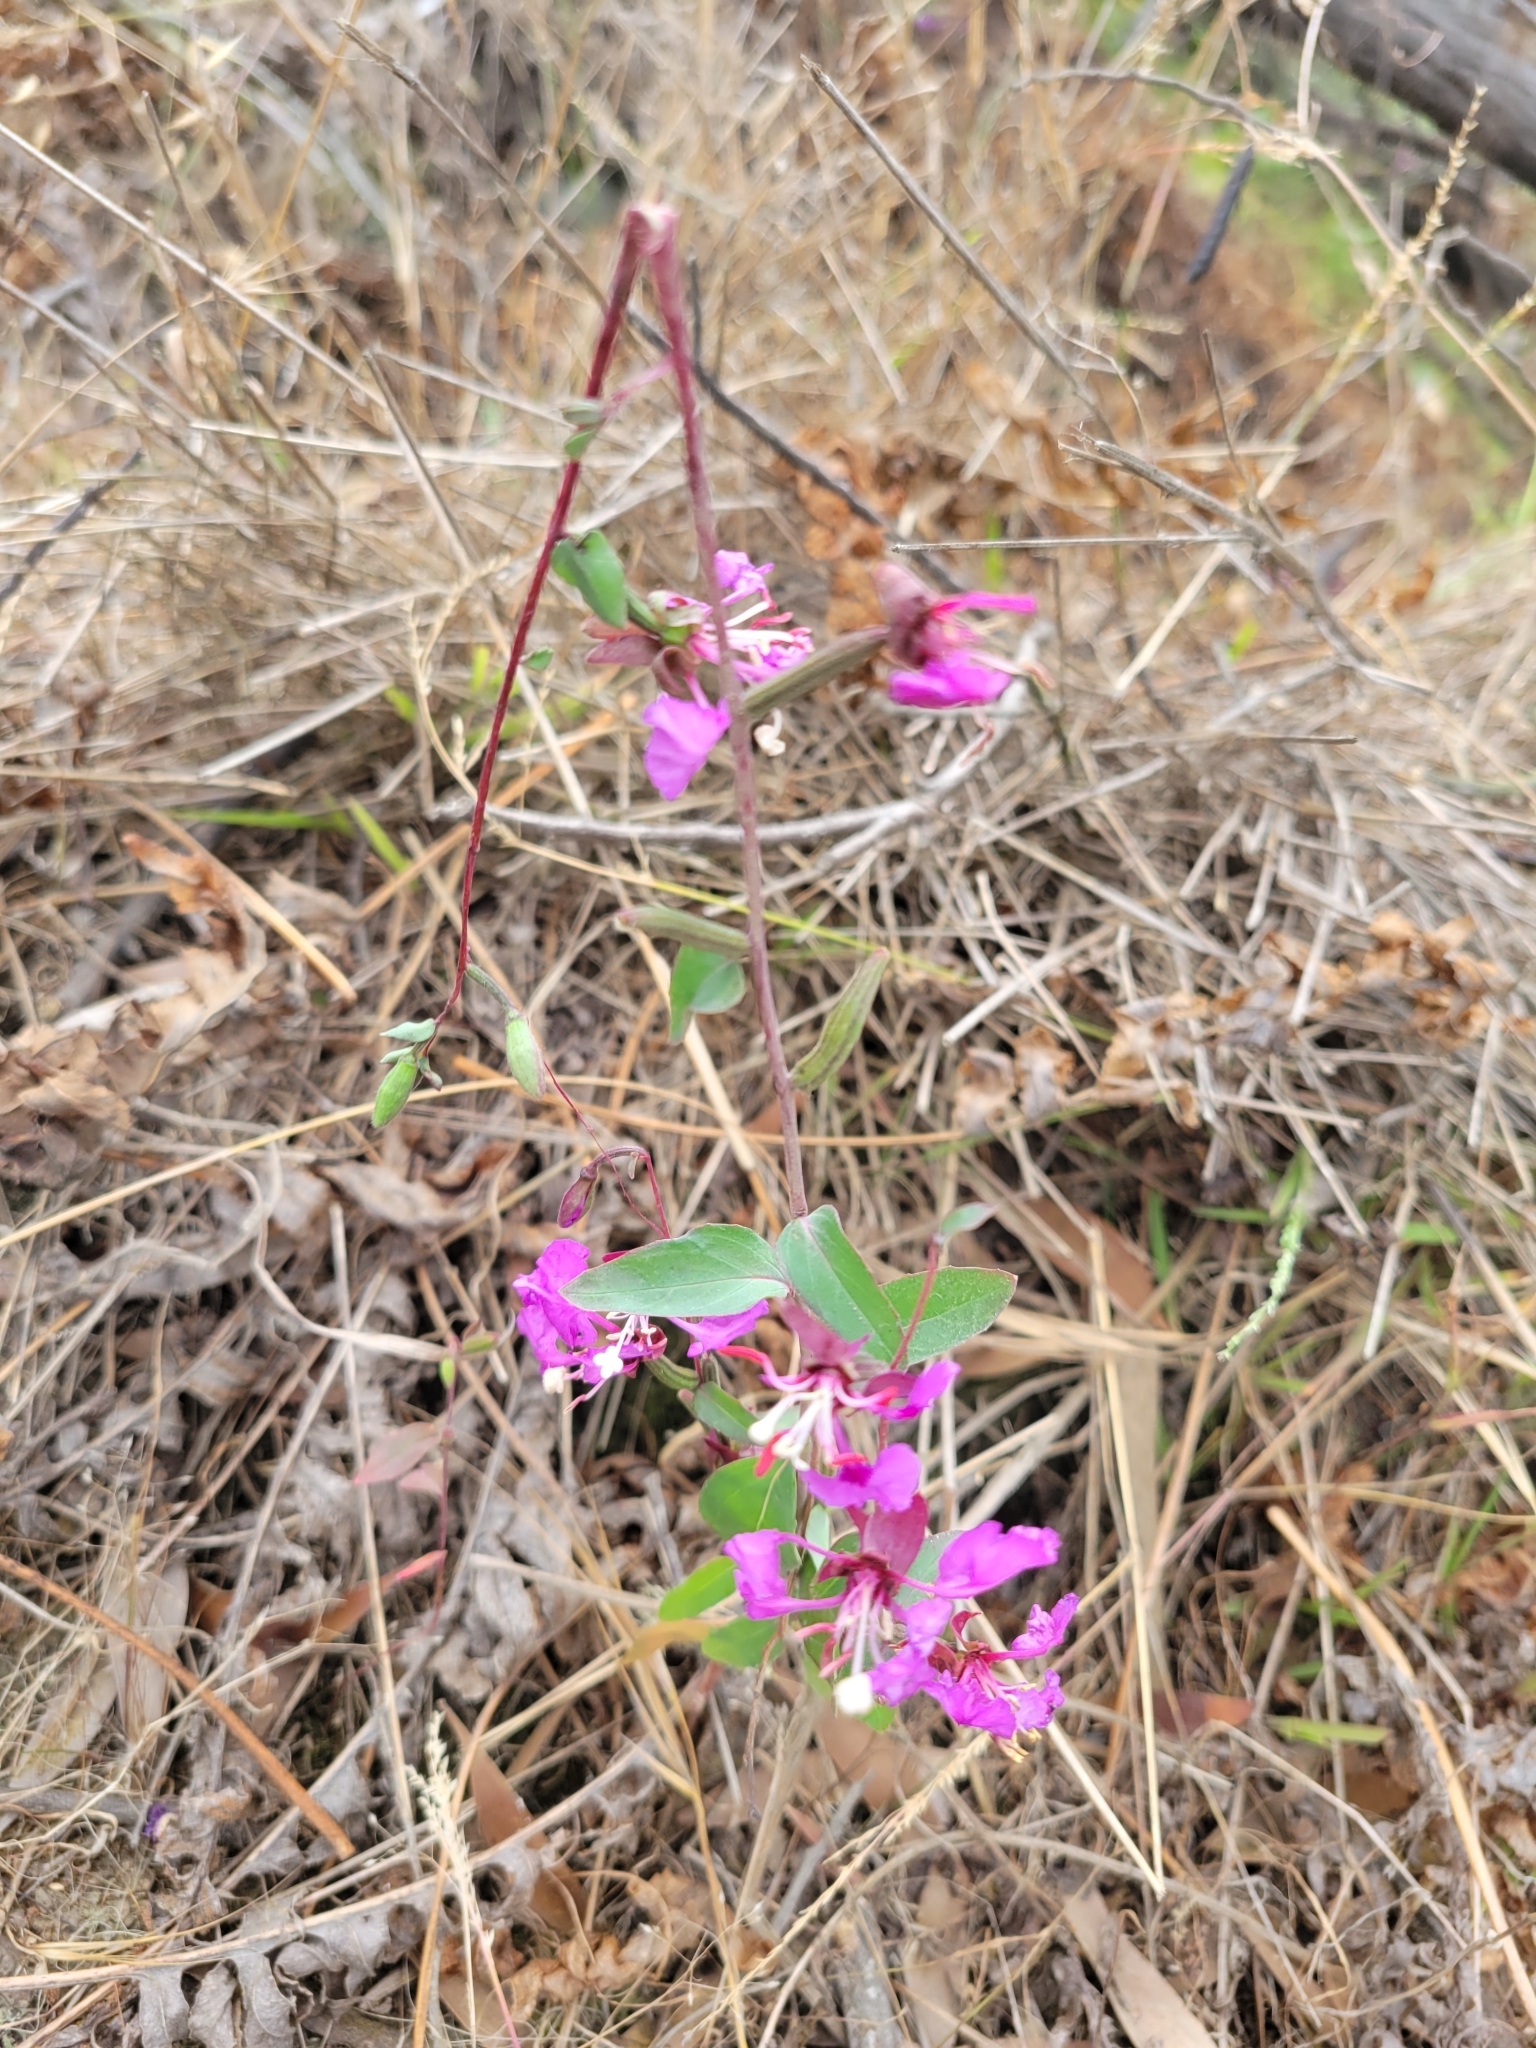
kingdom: Plantae
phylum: Tracheophyta
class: Magnoliopsida
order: Myrtales
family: Onagraceae
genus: Clarkia
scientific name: Clarkia unguiculata
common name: Clarkia
